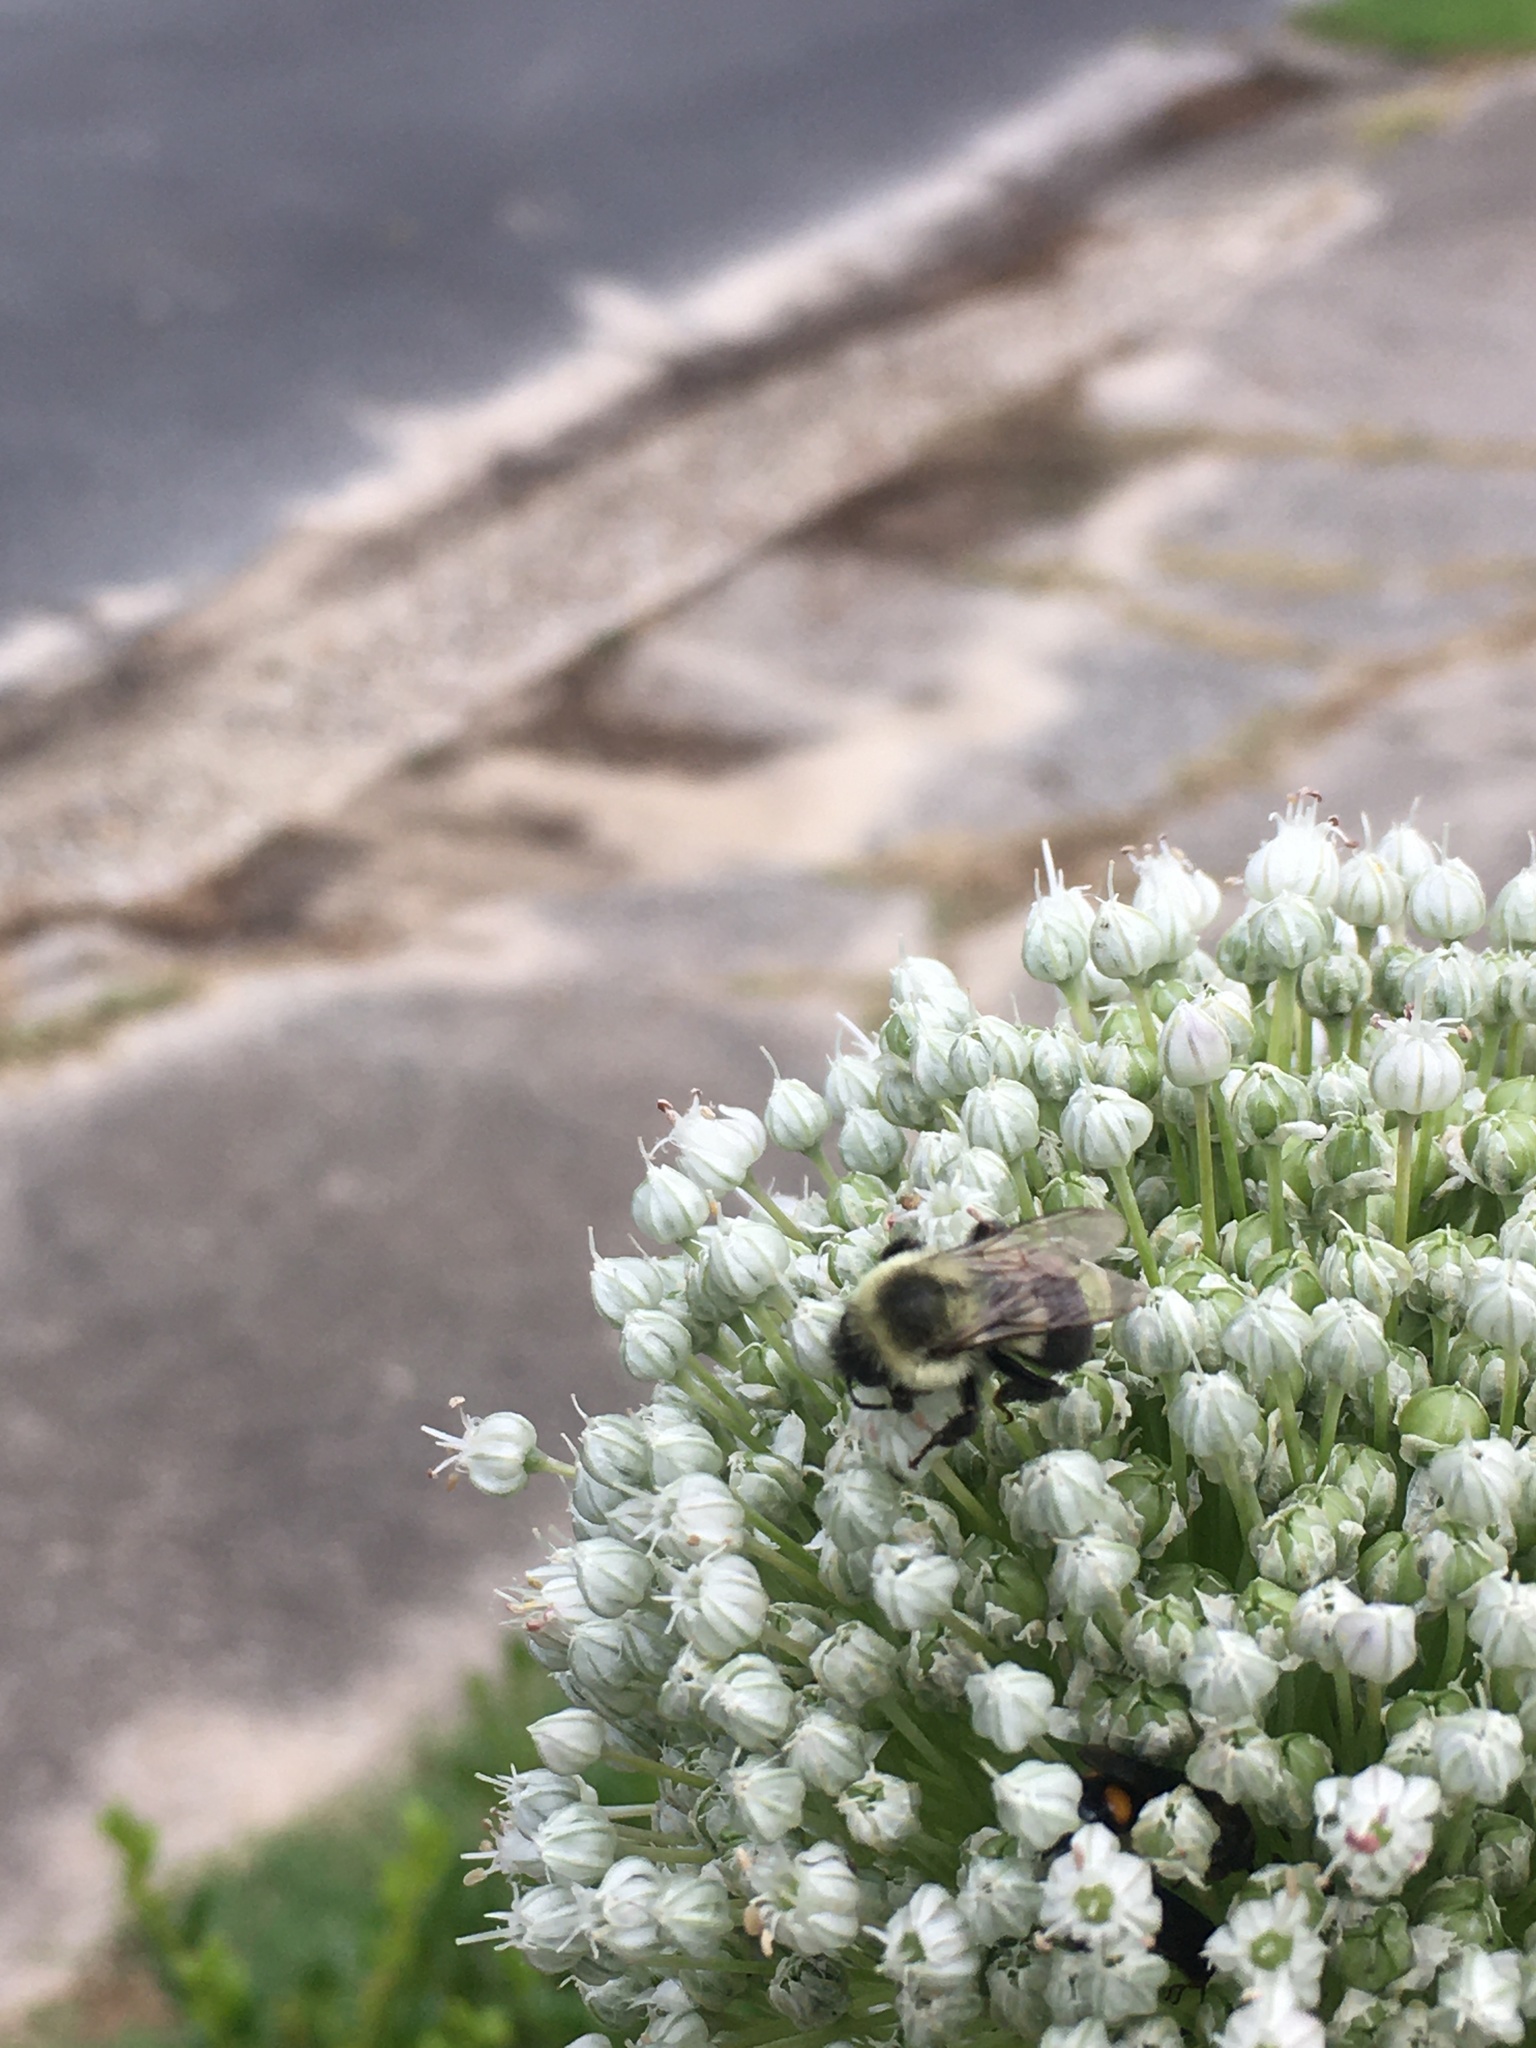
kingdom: Animalia
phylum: Arthropoda
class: Insecta
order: Hymenoptera
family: Apidae
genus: Bombus
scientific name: Bombus impatiens
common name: Common eastern bumble bee
